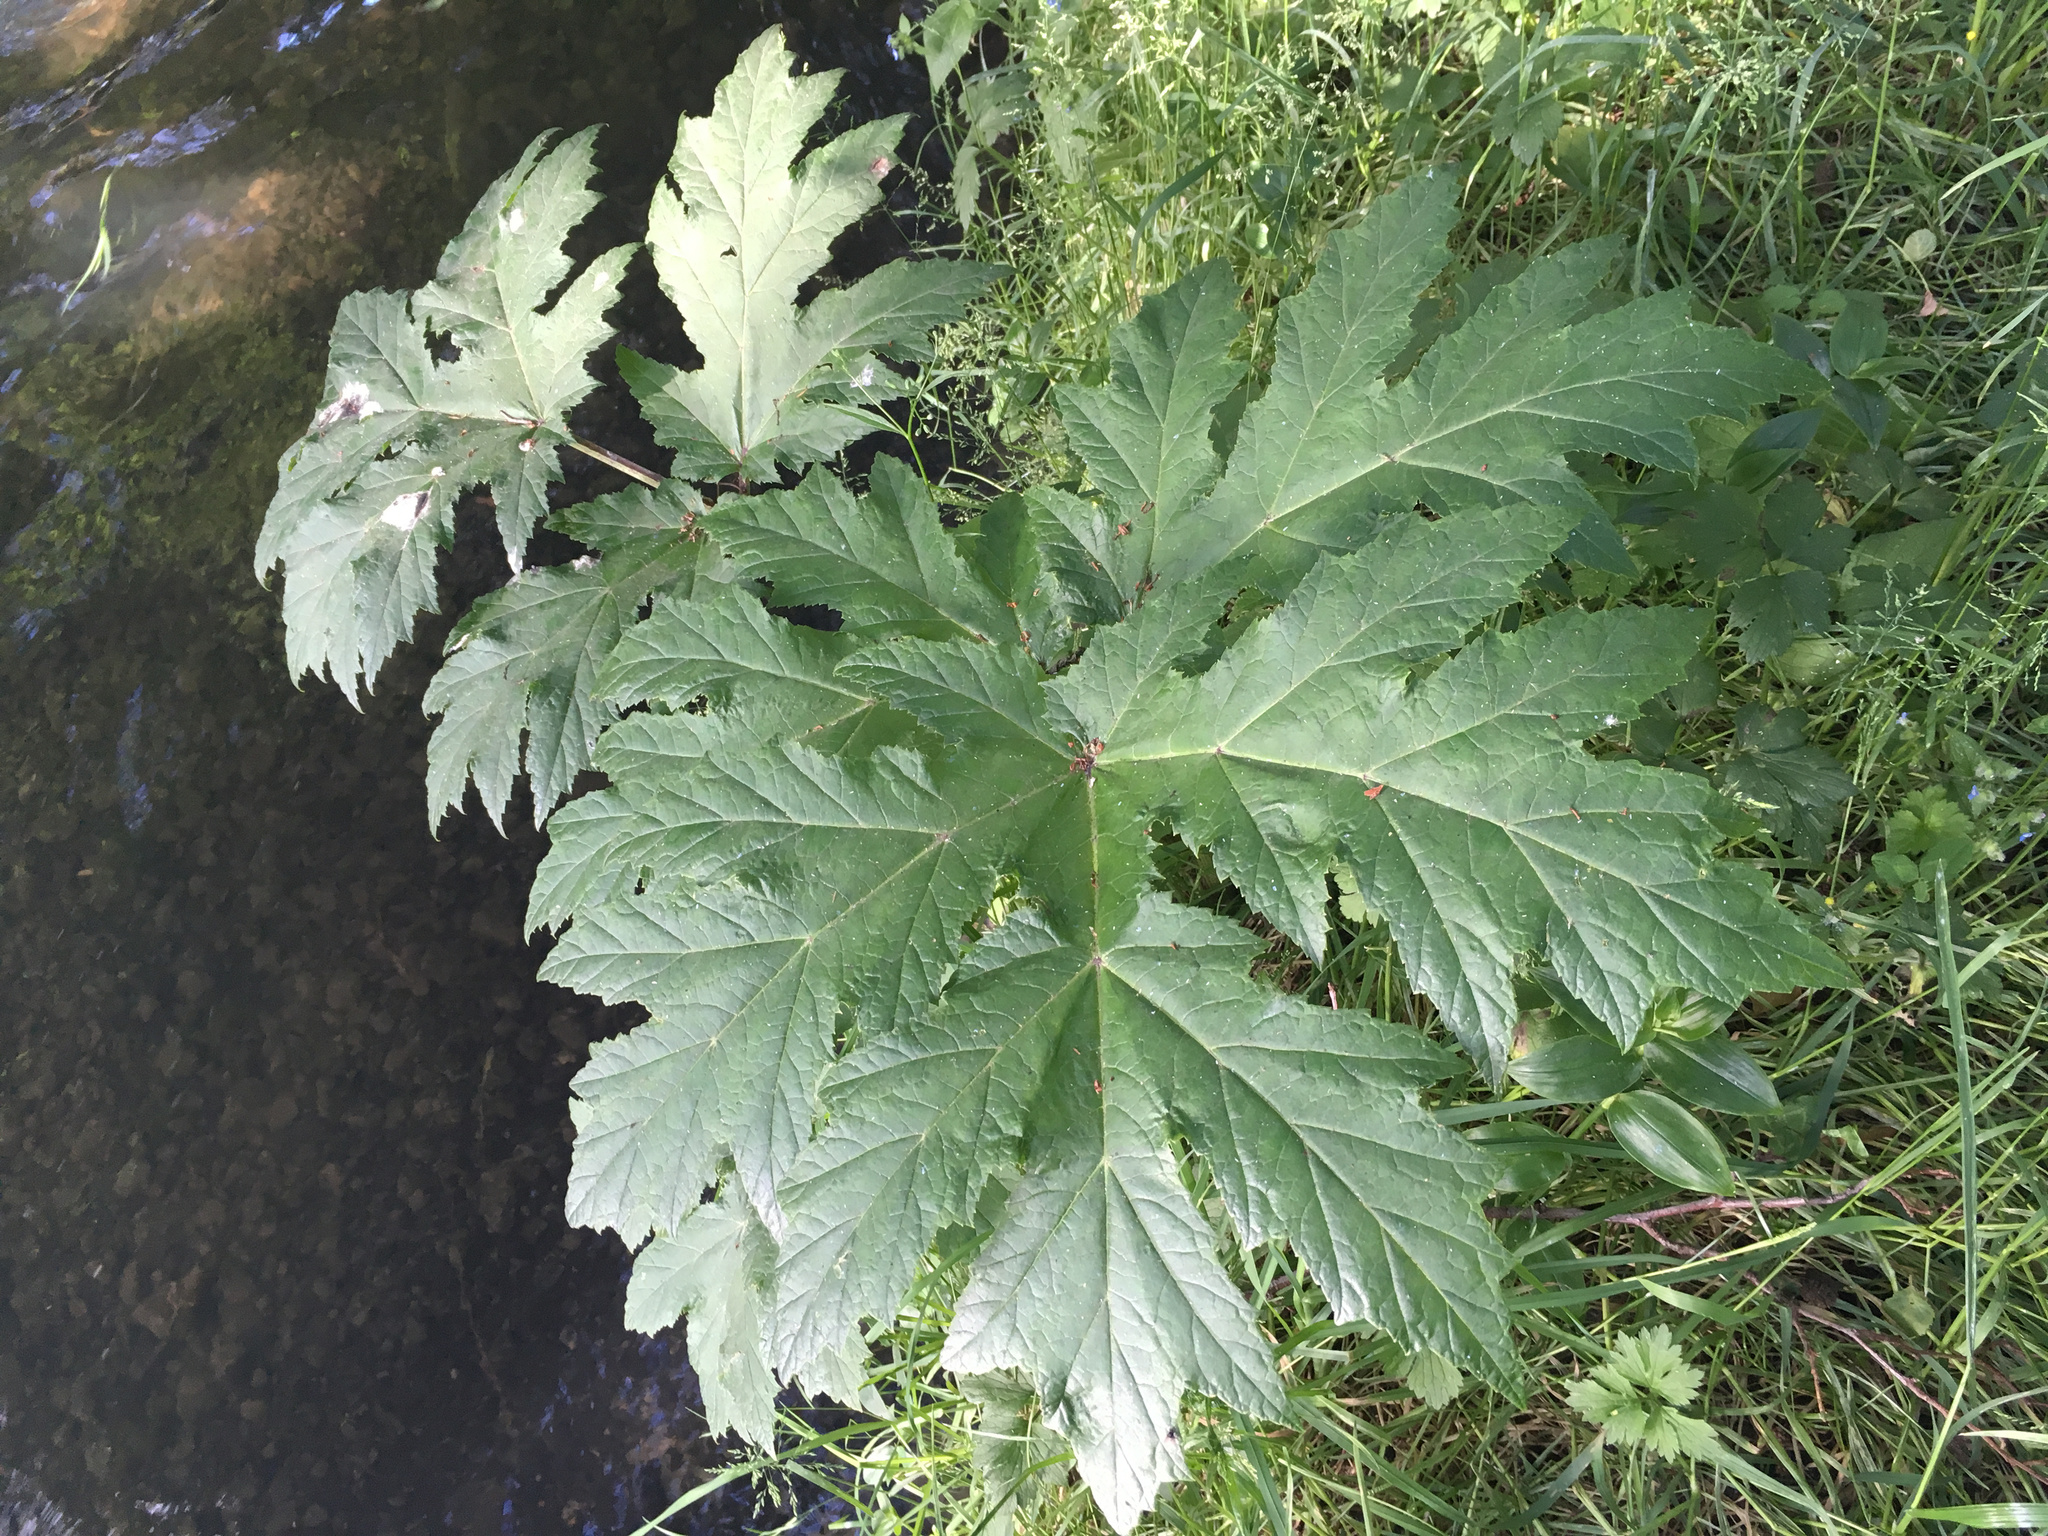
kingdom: Plantae
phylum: Tracheophyta
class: Magnoliopsida
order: Apiales
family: Apiaceae
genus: Heracleum
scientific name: Heracleum mantegazzianum
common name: Giant hogweed
